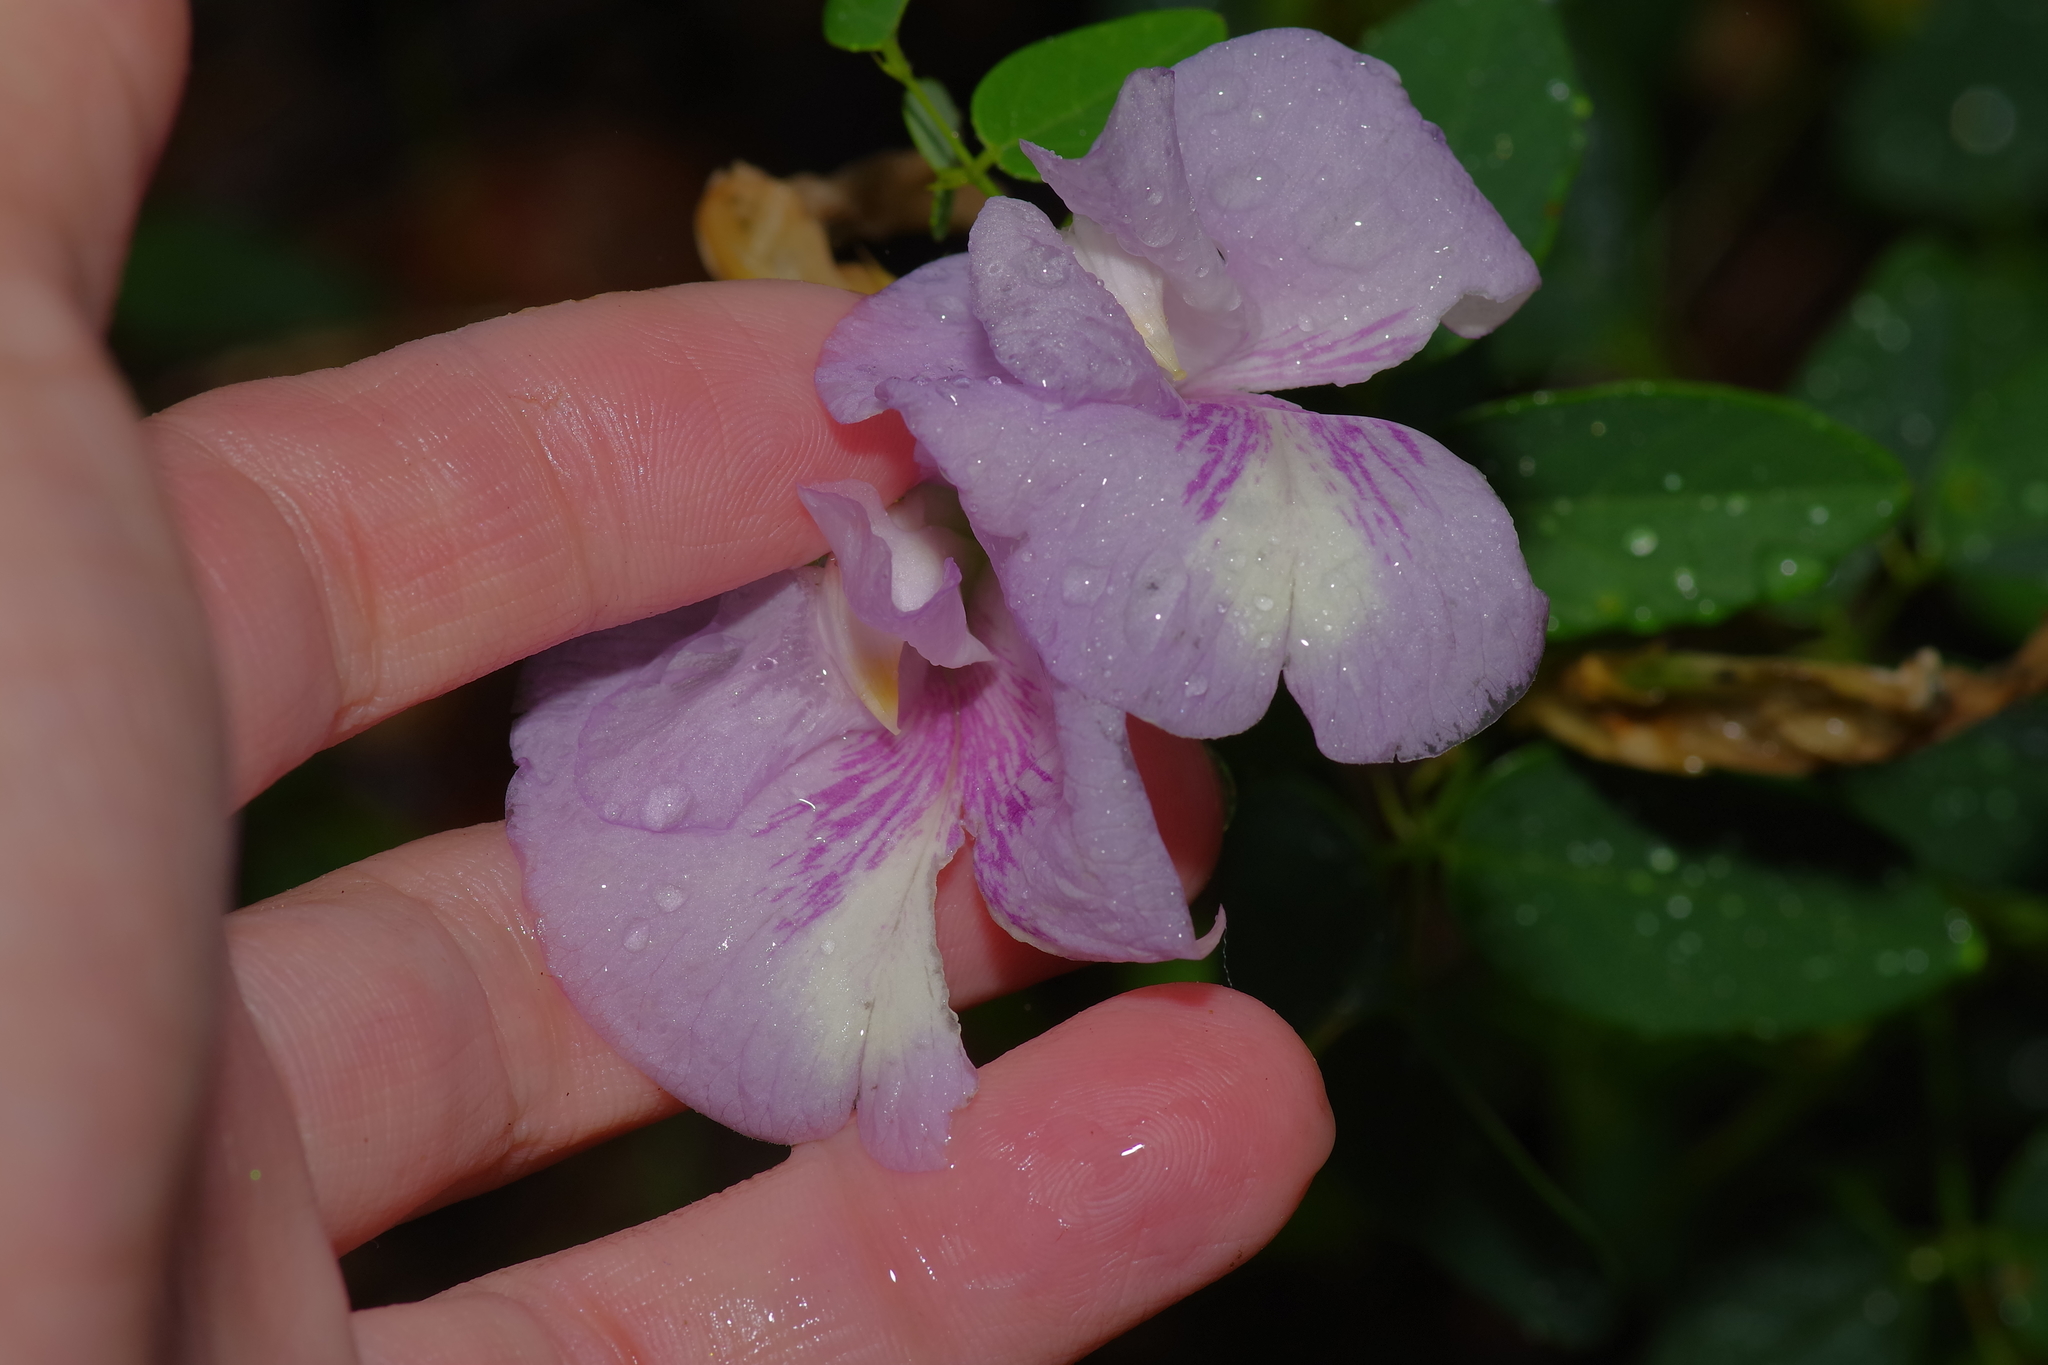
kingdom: Plantae
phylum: Tracheophyta
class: Magnoliopsida
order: Fabales
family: Fabaceae
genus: Clitoria
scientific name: Clitoria mariana
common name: Butterfly-pea
